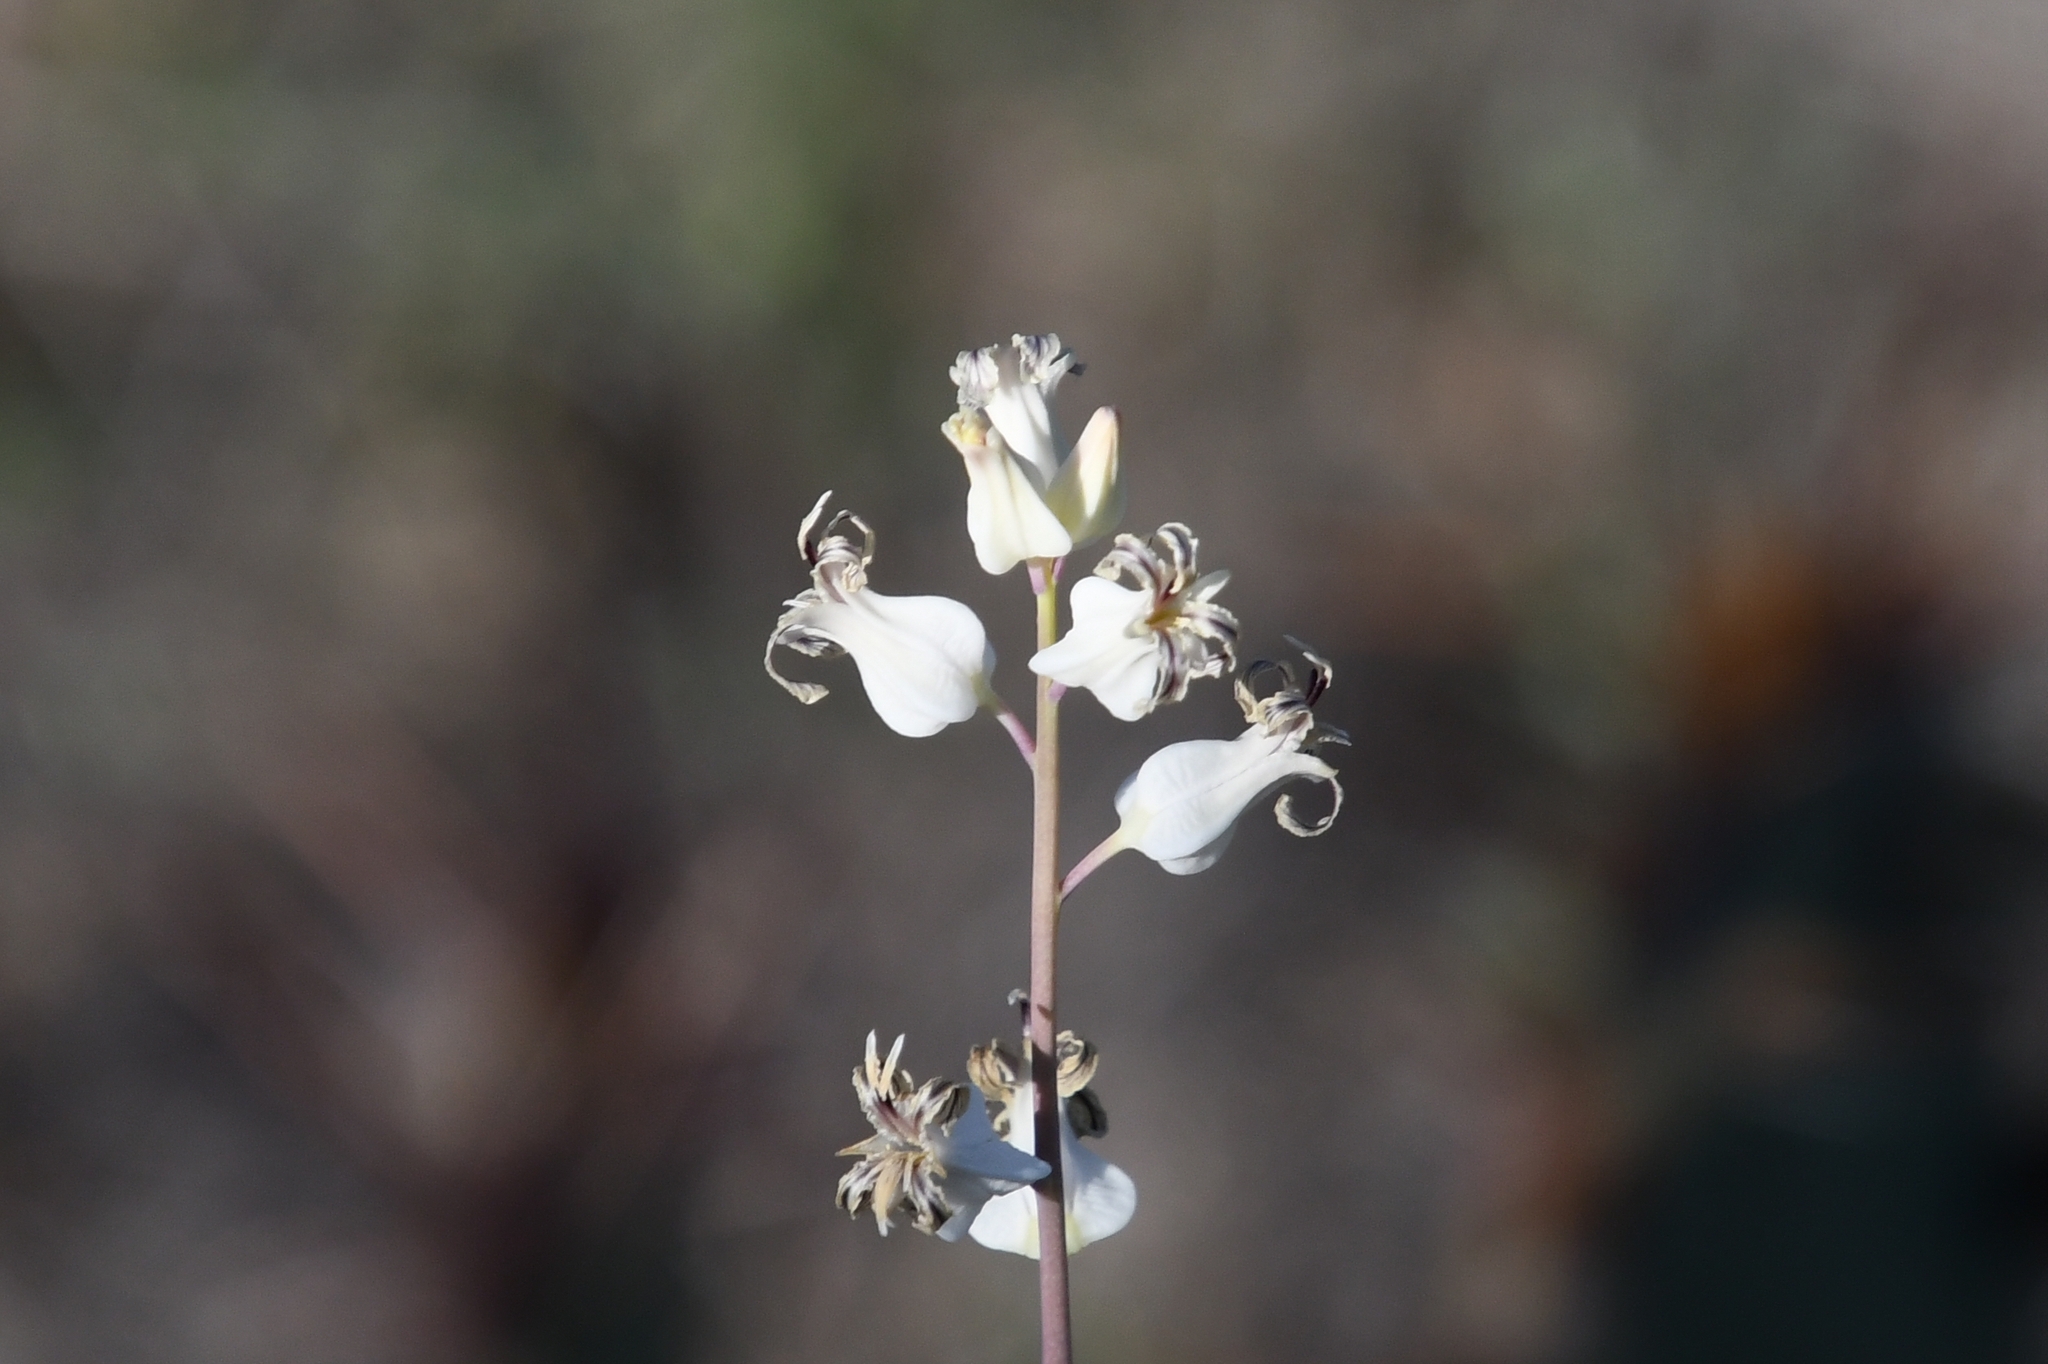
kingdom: Plantae
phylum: Tracheophyta
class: Magnoliopsida
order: Brassicales
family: Brassicaceae
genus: Streptanthus
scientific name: Streptanthus carinatus
